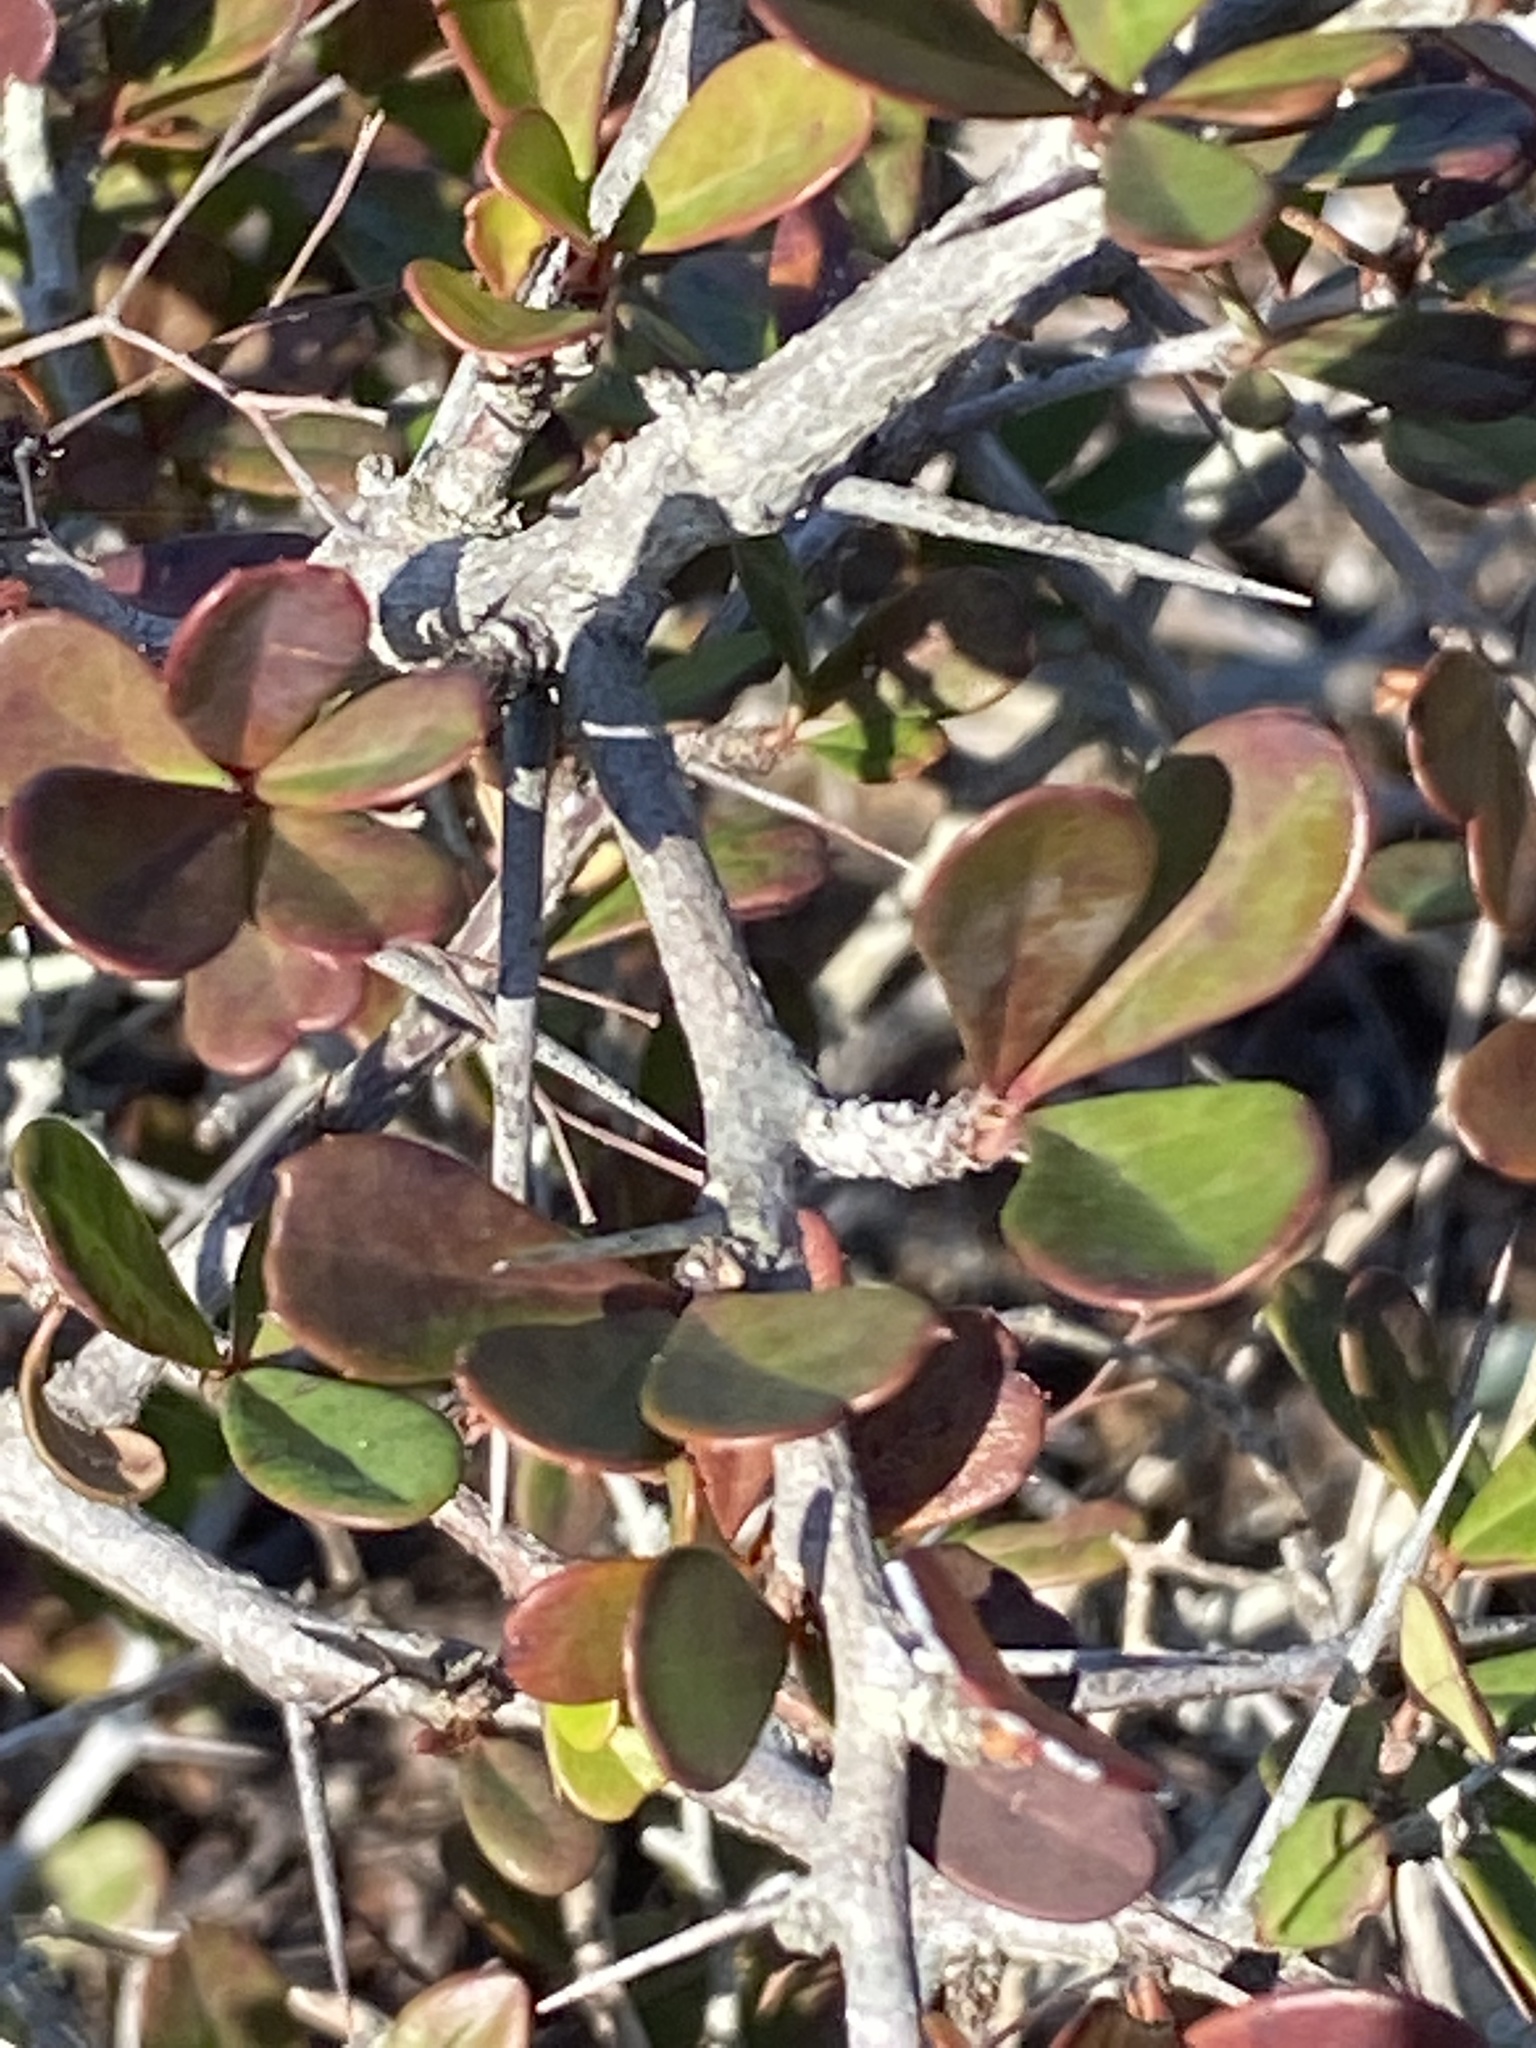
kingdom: Plantae
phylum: Tracheophyta
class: Magnoliopsida
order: Celastrales
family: Celastraceae
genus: Putterlickia
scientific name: Putterlickia pyracantha
